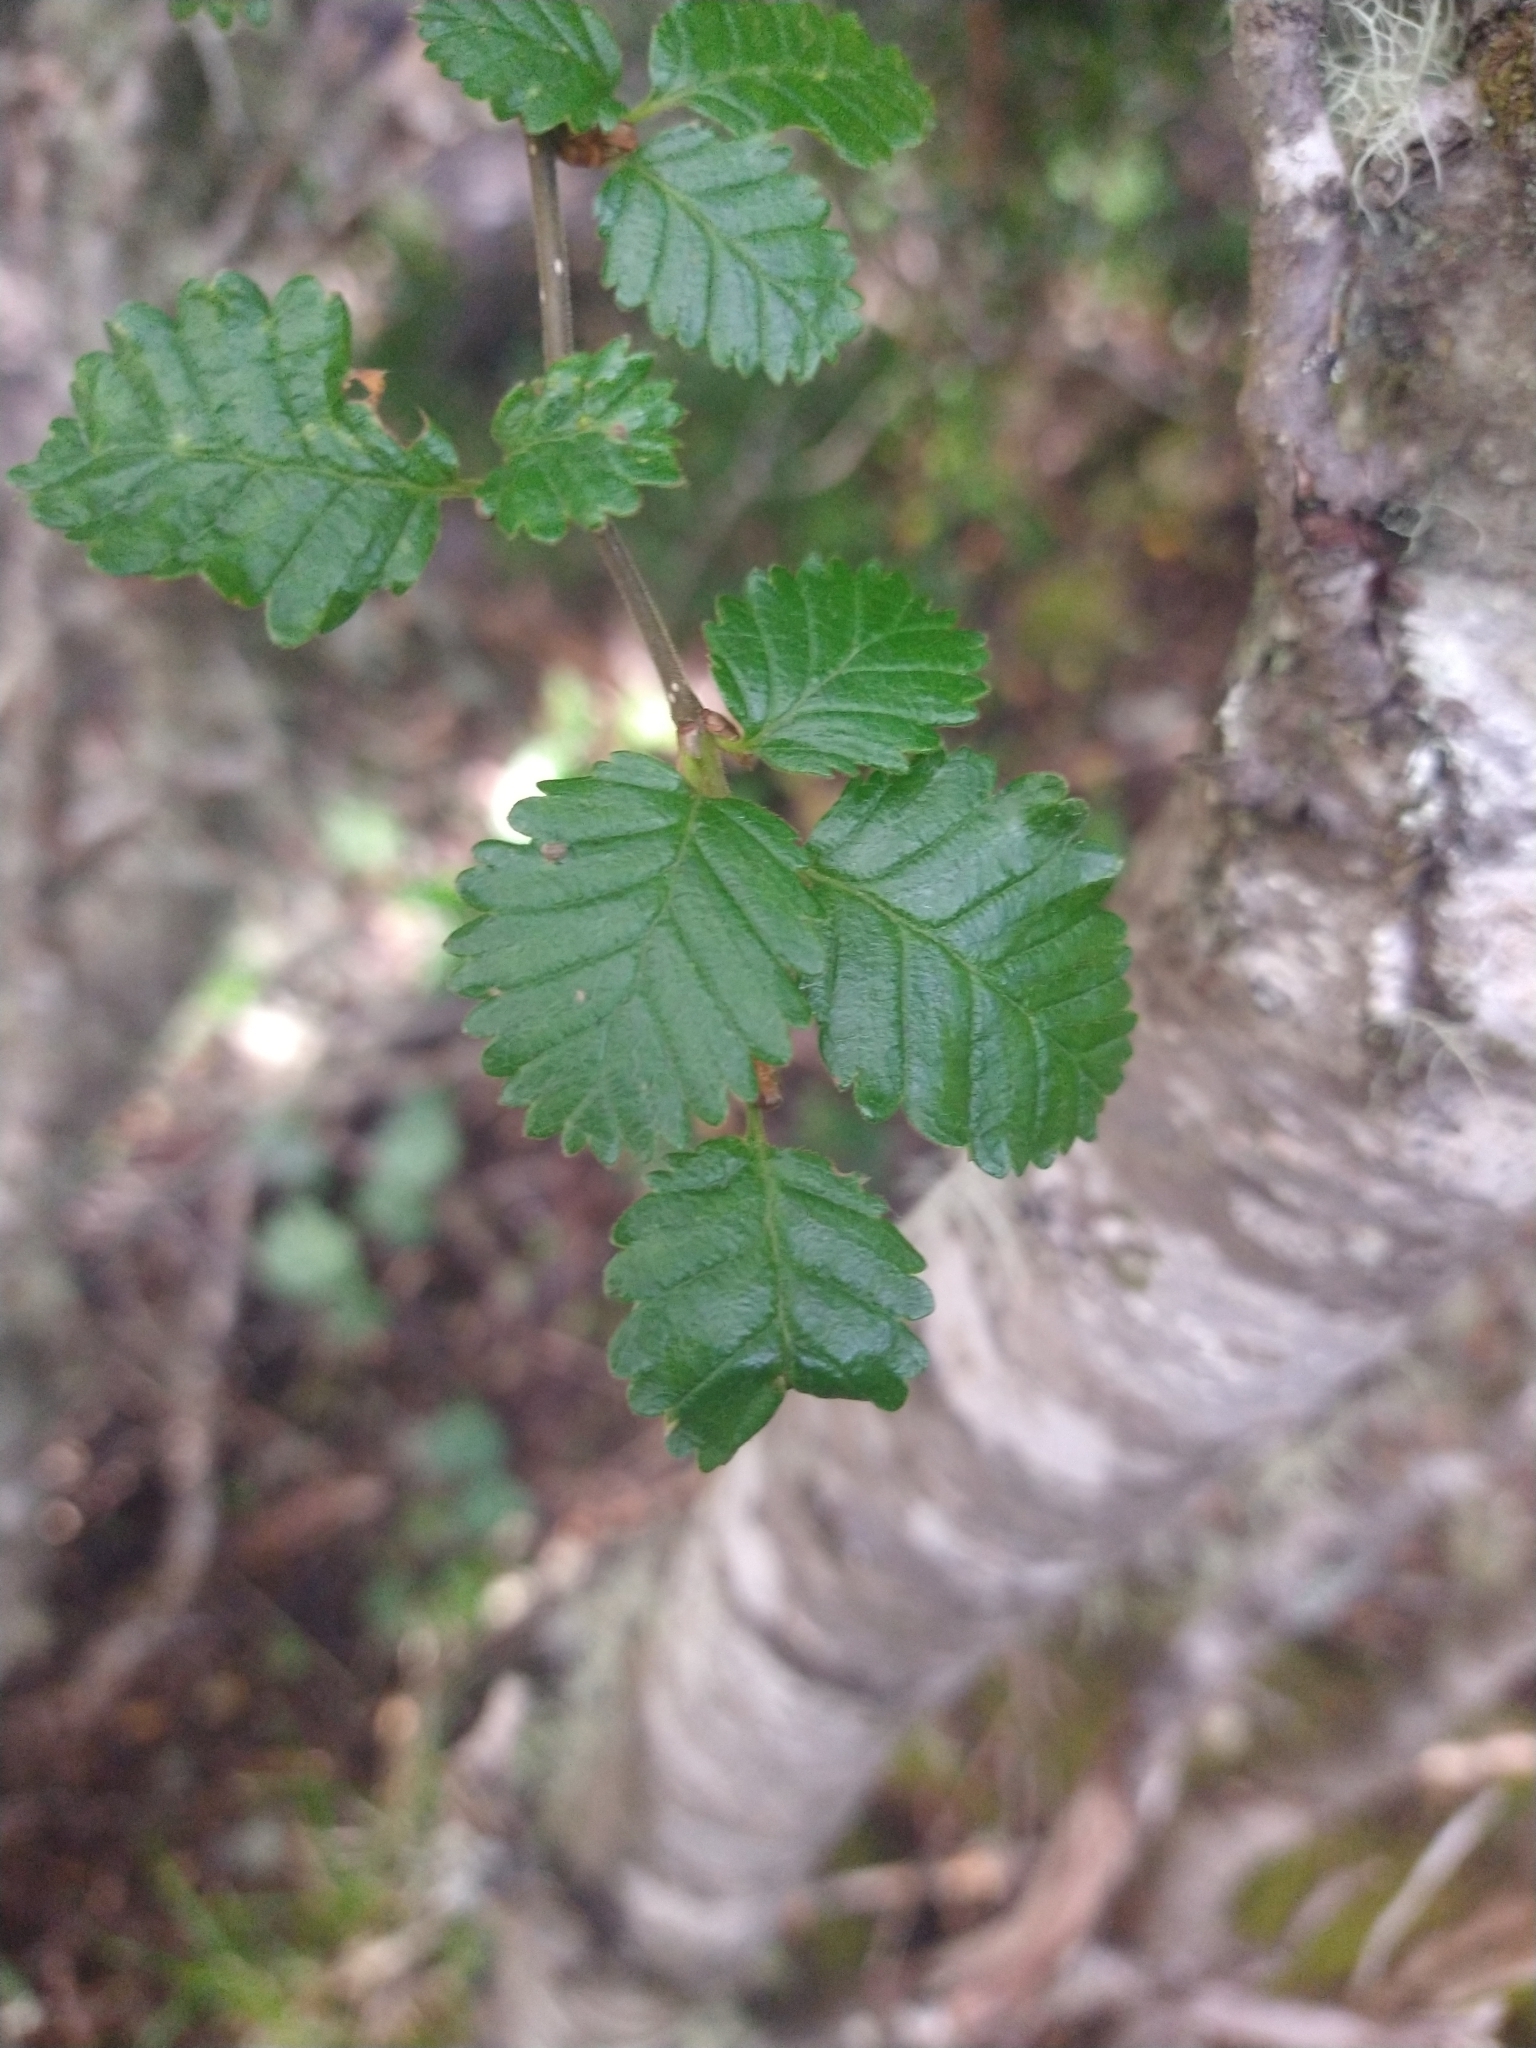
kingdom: Plantae
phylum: Tracheophyta
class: Magnoliopsida
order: Fagales
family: Nothofagaceae
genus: Nothofagus
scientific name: Nothofagus pumilio
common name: Lenga beech
